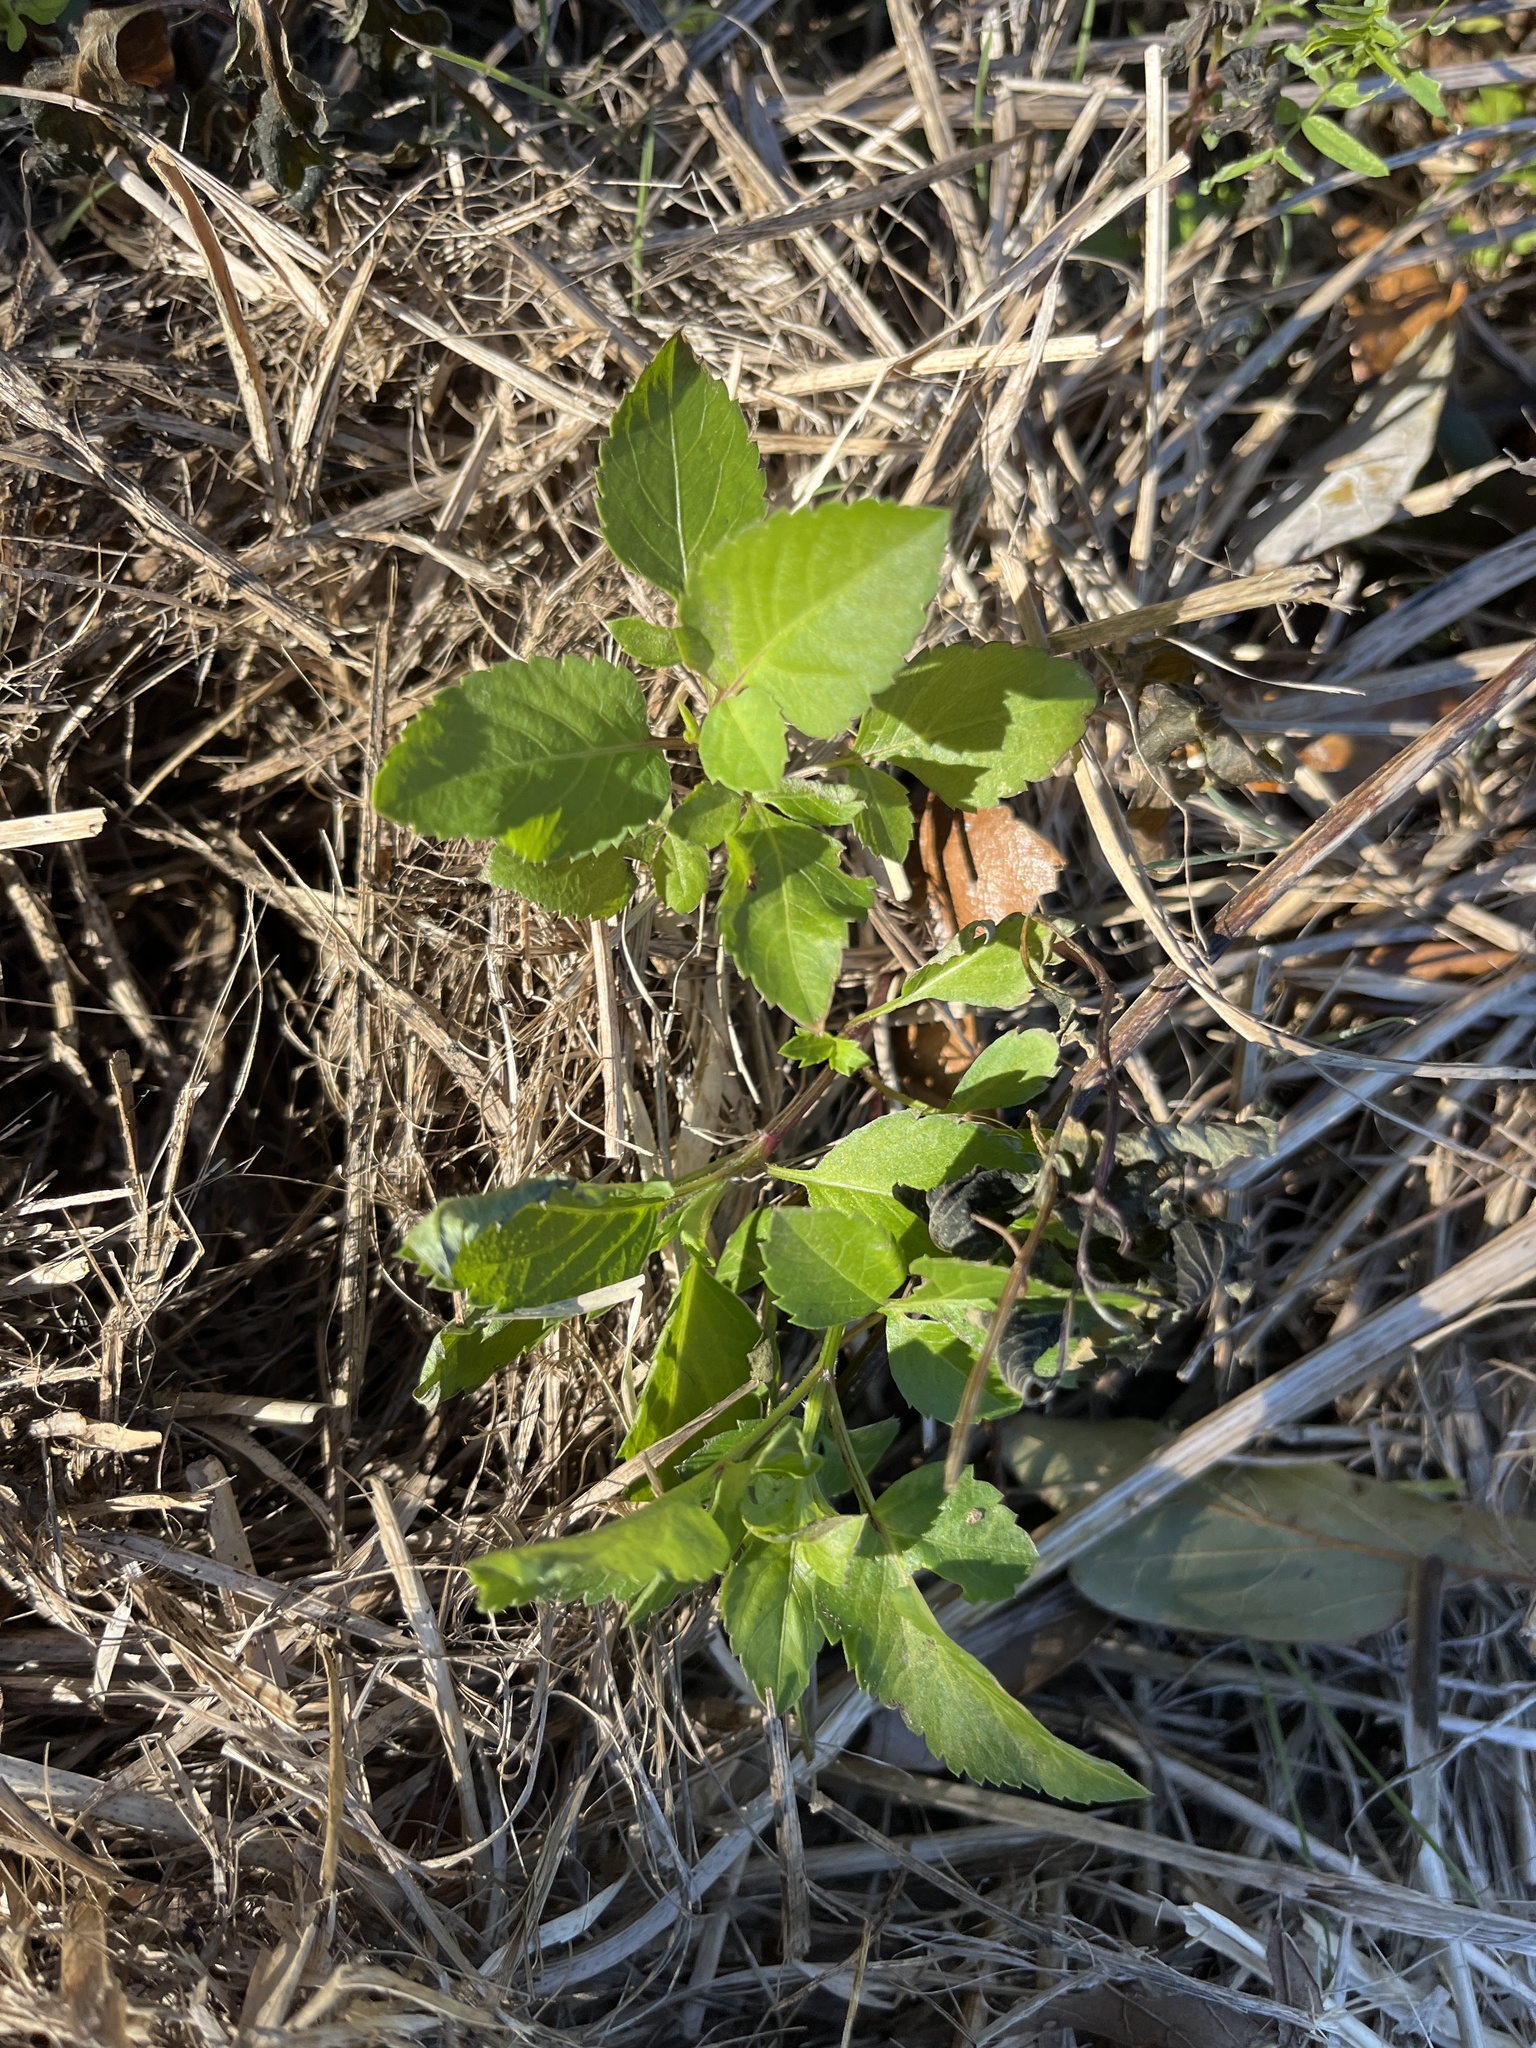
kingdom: Plantae
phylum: Tracheophyta
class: Magnoliopsida
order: Asterales
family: Asteraceae
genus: Bidens
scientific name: Bidens alba
